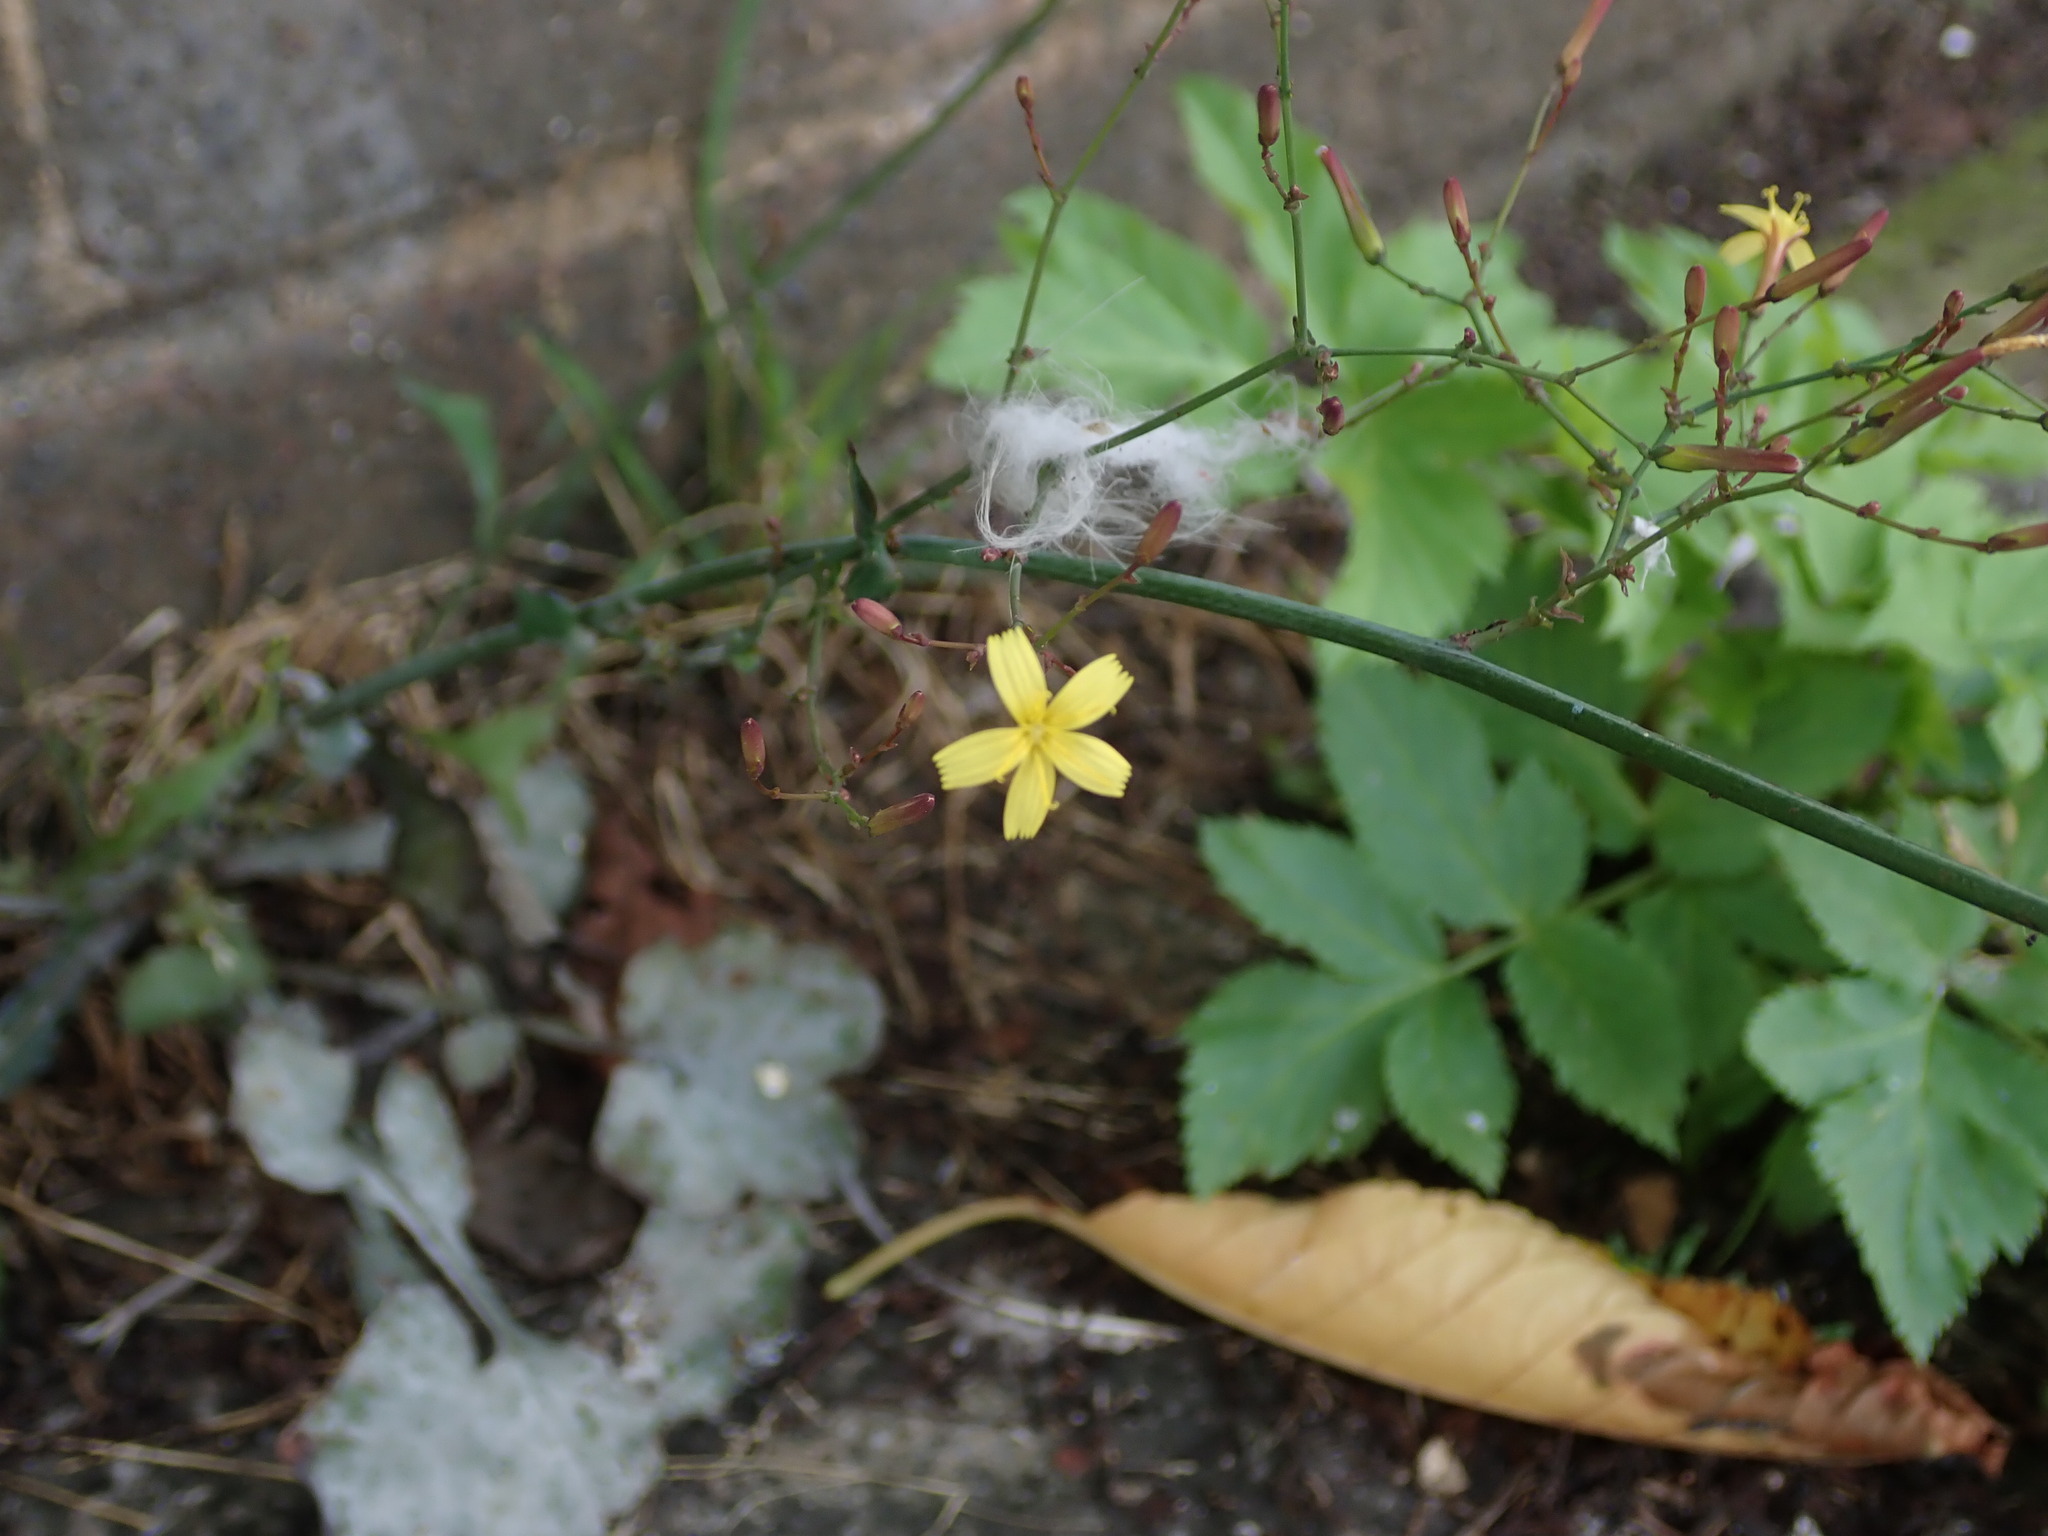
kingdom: Plantae
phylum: Tracheophyta
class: Magnoliopsida
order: Asterales
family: Asteraceae
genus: Mycelis
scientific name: Mycelis muralis
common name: Wall lettuce
